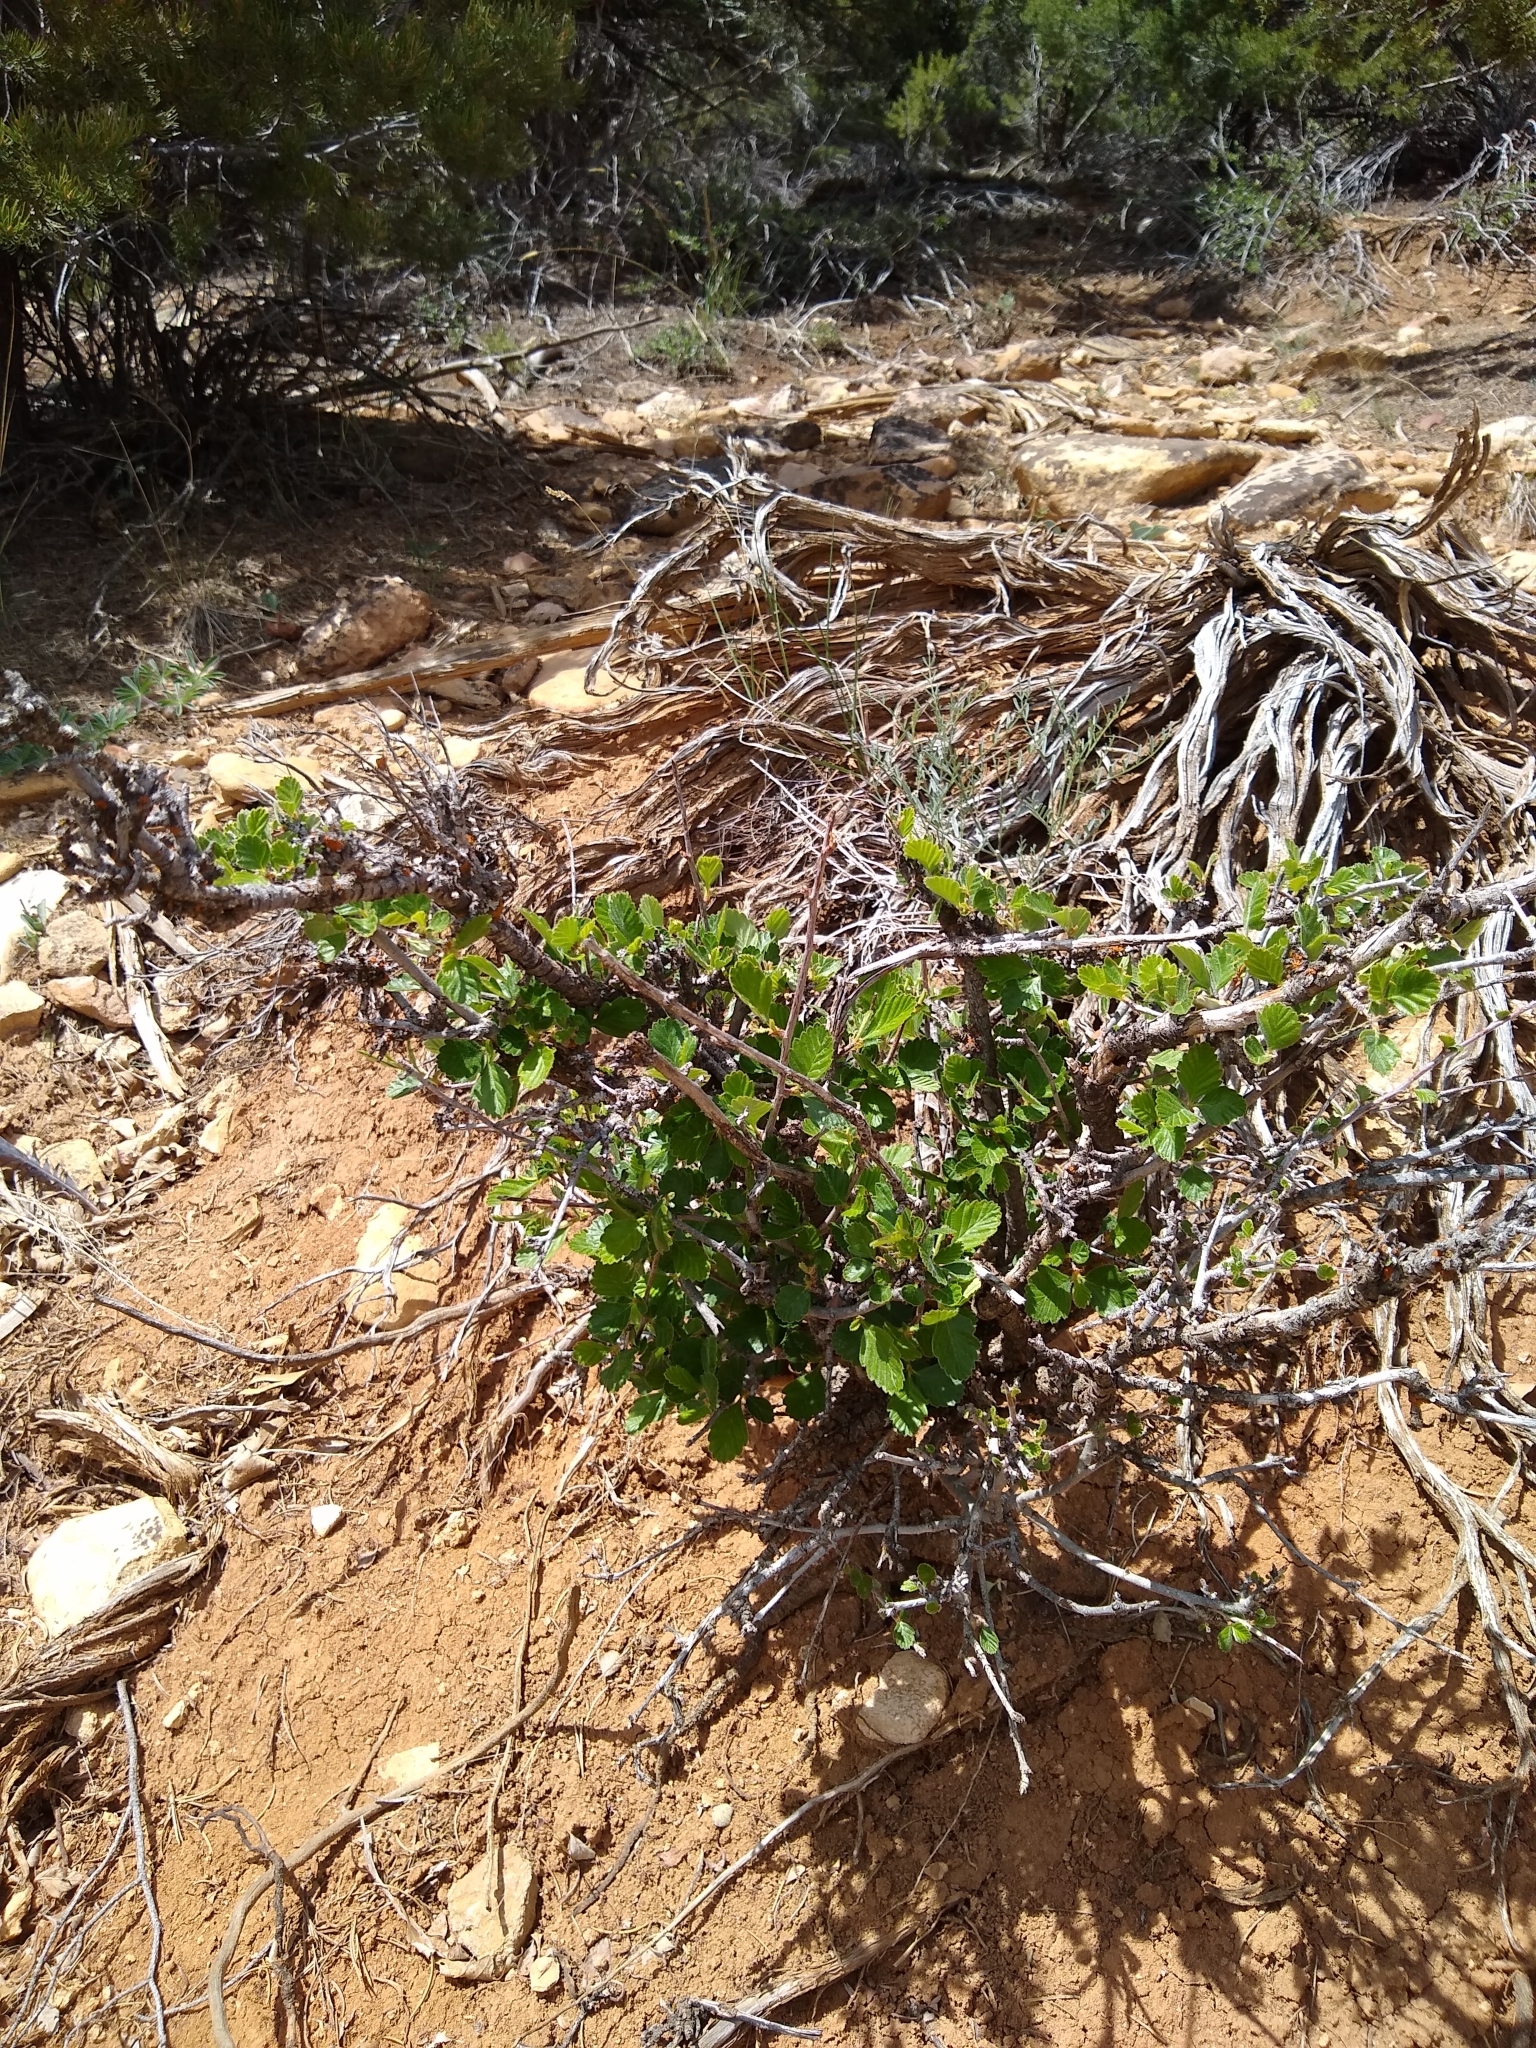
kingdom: Plantae
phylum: Tracheophyta
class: Magnoliopsida
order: Rosales
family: Rosaceae
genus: Cercocarpus
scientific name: Cercocarpus montanus
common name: Alder-leaf cercocarpus
